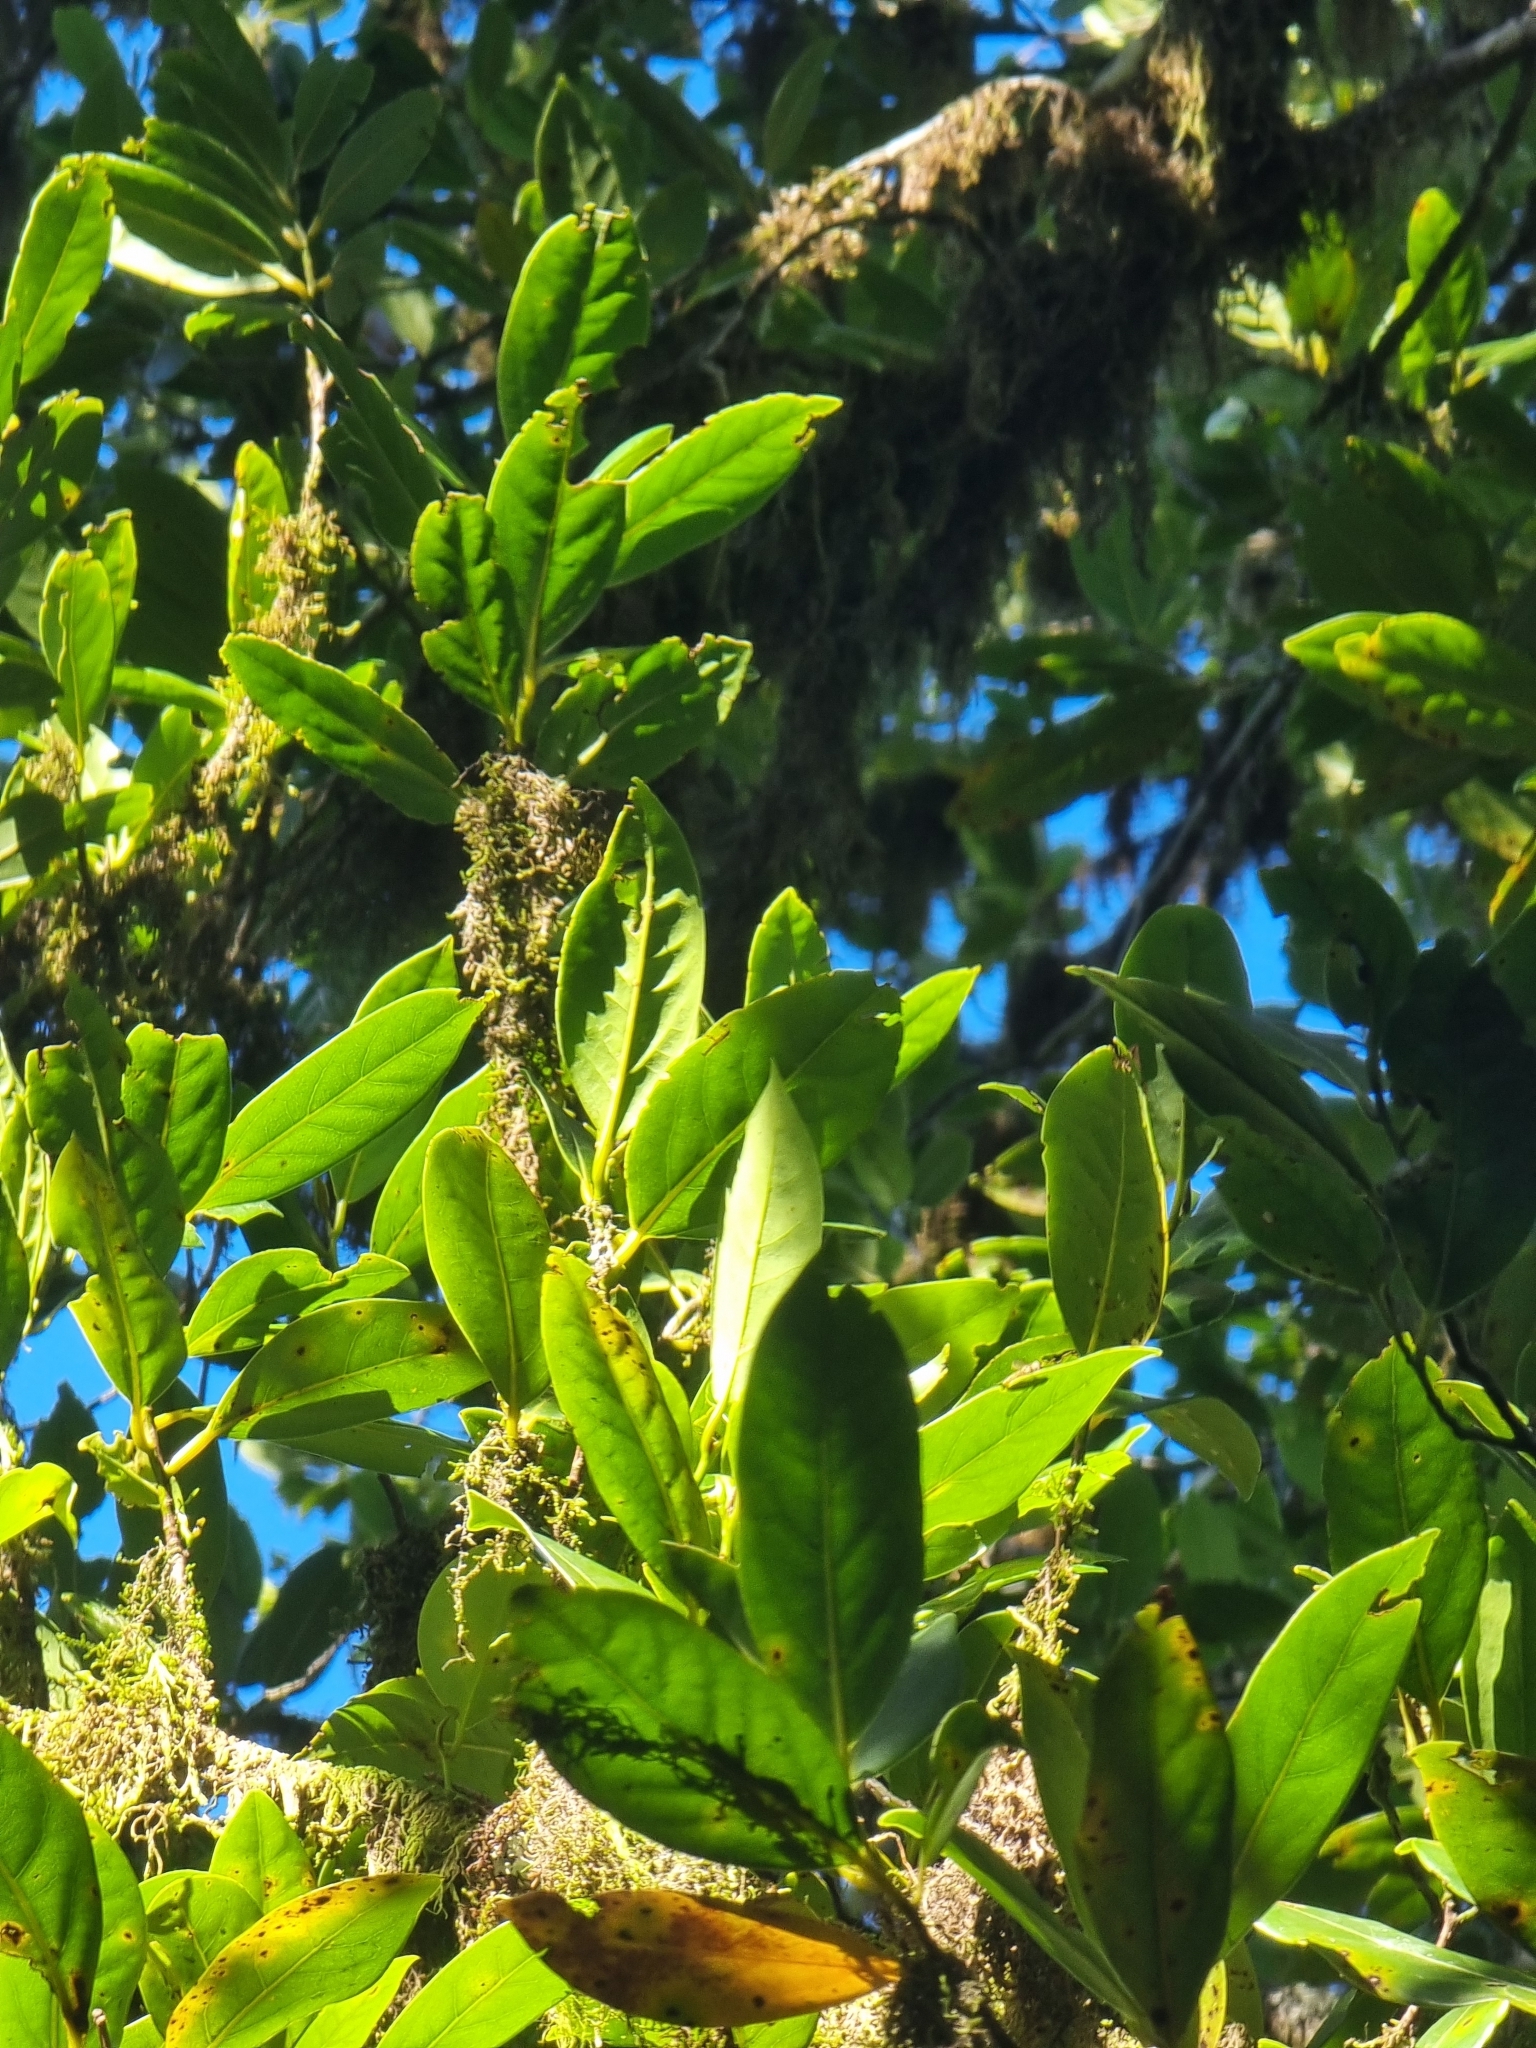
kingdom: Plantae
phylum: Tracheophyta
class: Magnoliopsida
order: Laurales
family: Lauraceae
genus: Mespilodaphne
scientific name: Mespilodaphne foetens
